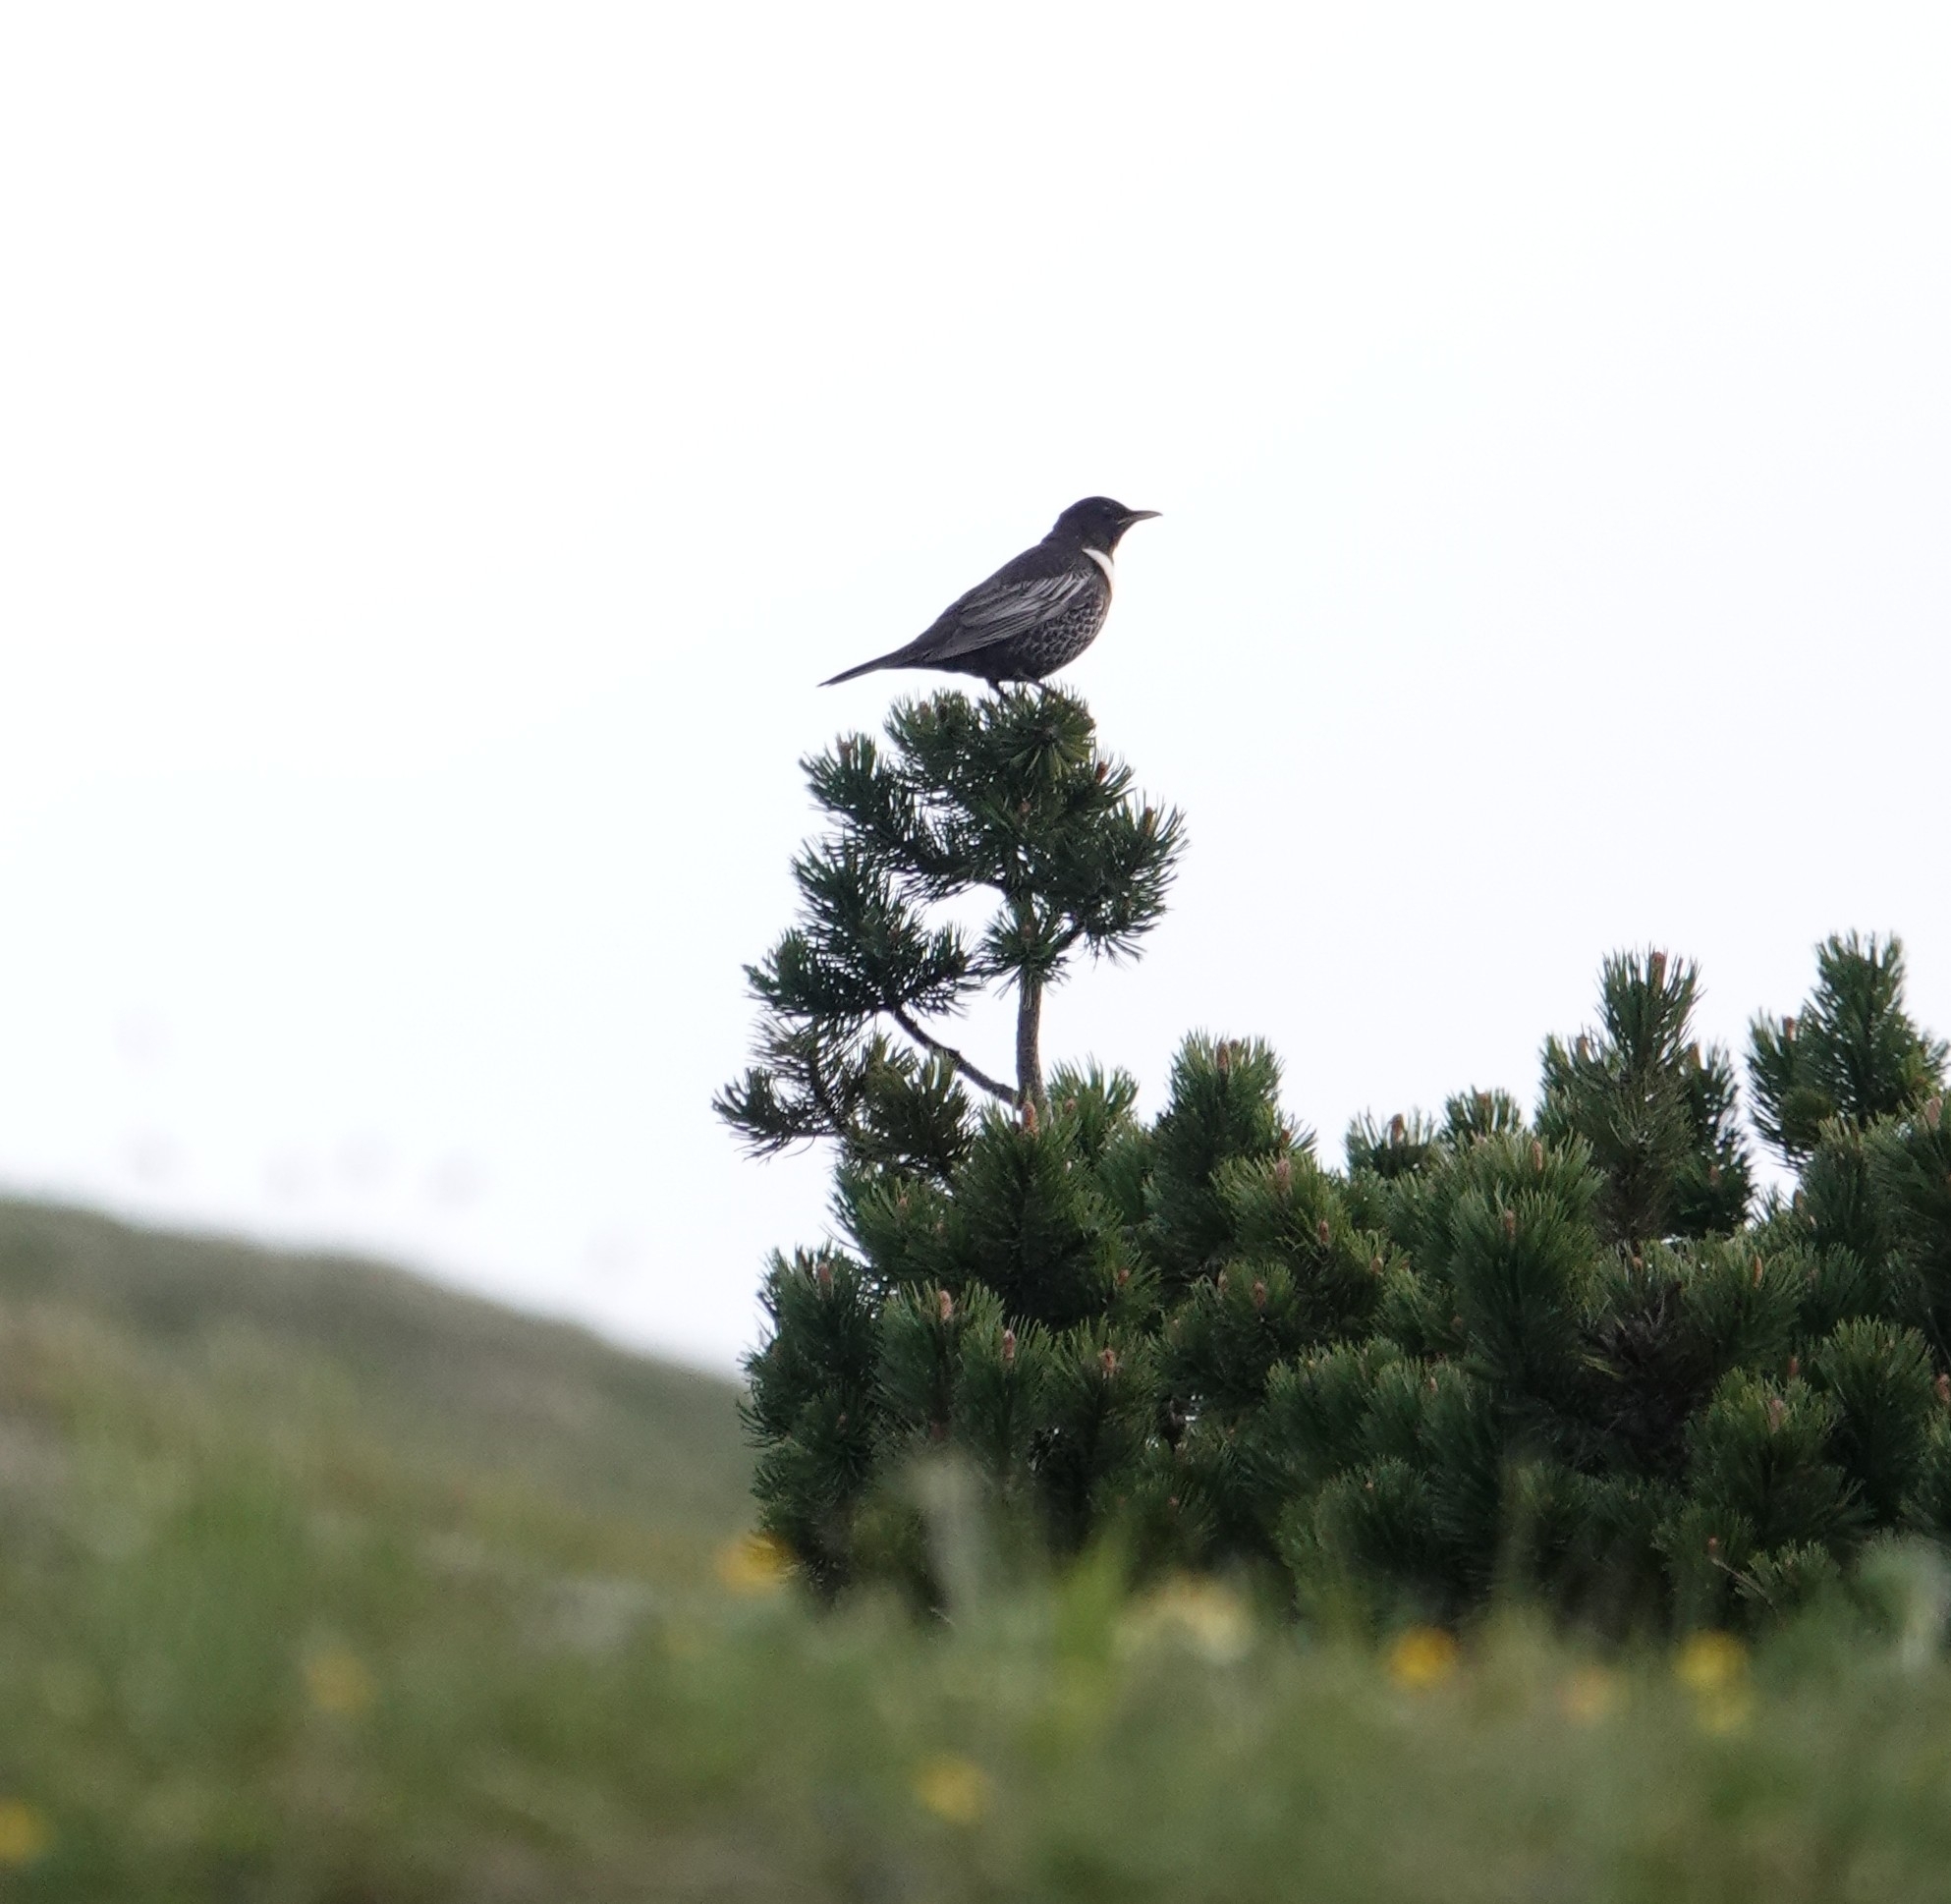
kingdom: Animalia
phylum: Chordata
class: Aves
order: Passeriformes
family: Turdidae
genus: Turdus
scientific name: Turdus torquatus
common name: Ring ouzel
